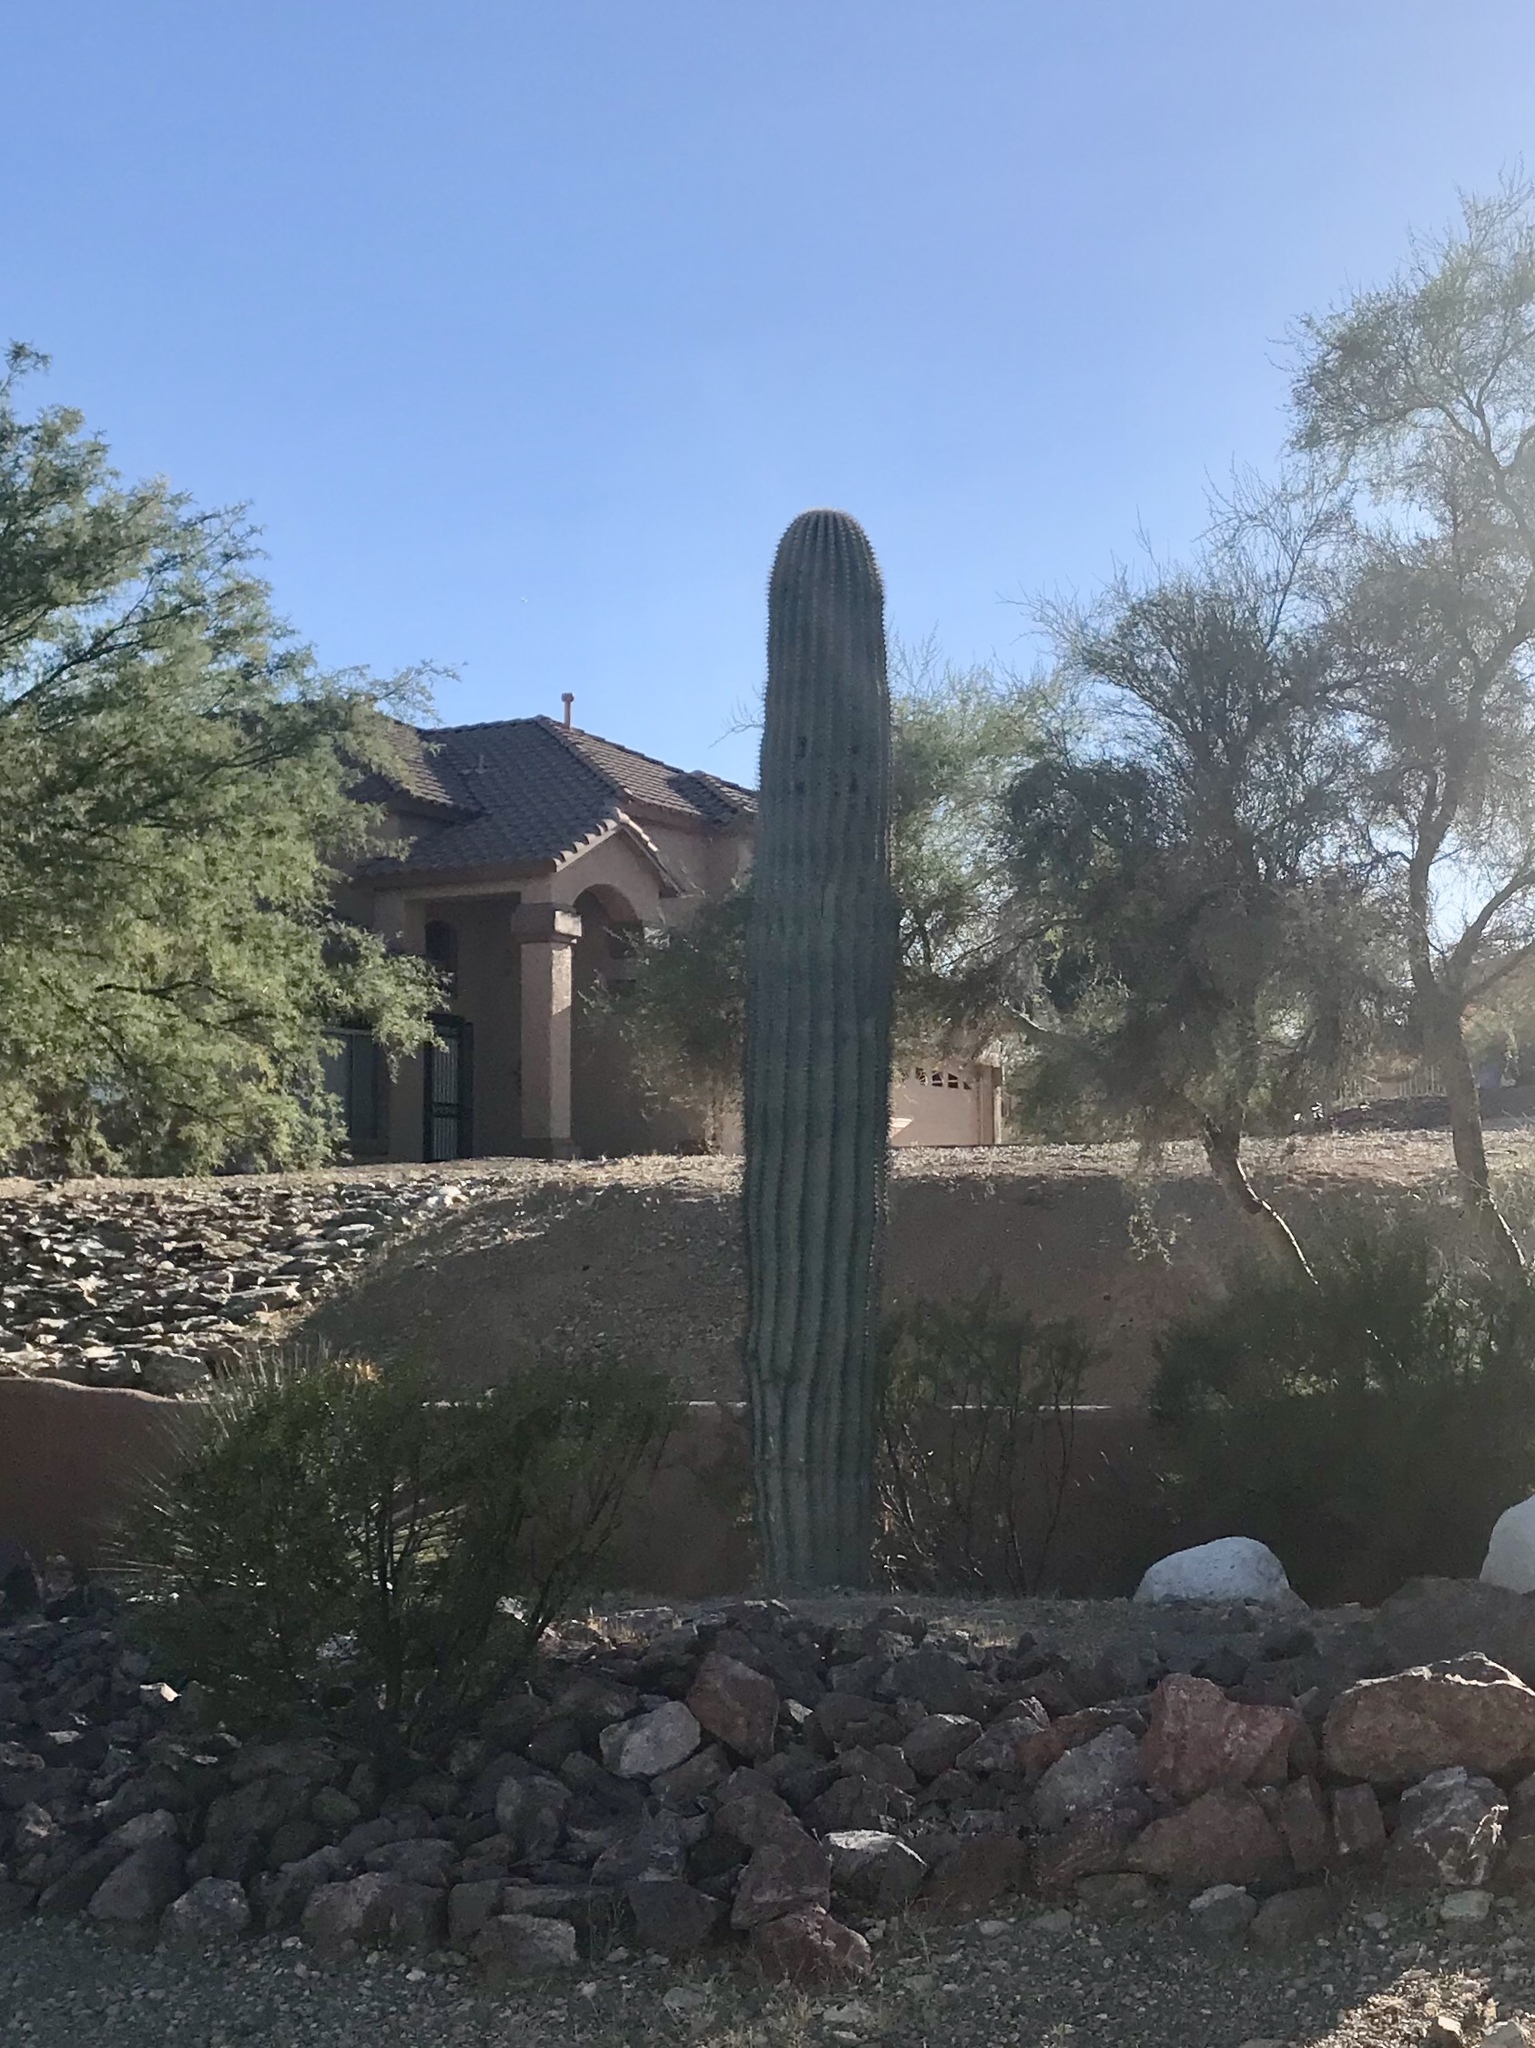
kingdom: Plantae
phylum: Tracheophyta
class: Magnoliopsida
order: Caryophyllales
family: Cactaceae
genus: Carnegiea
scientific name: Carnegiea gigantea
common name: Saguaro
